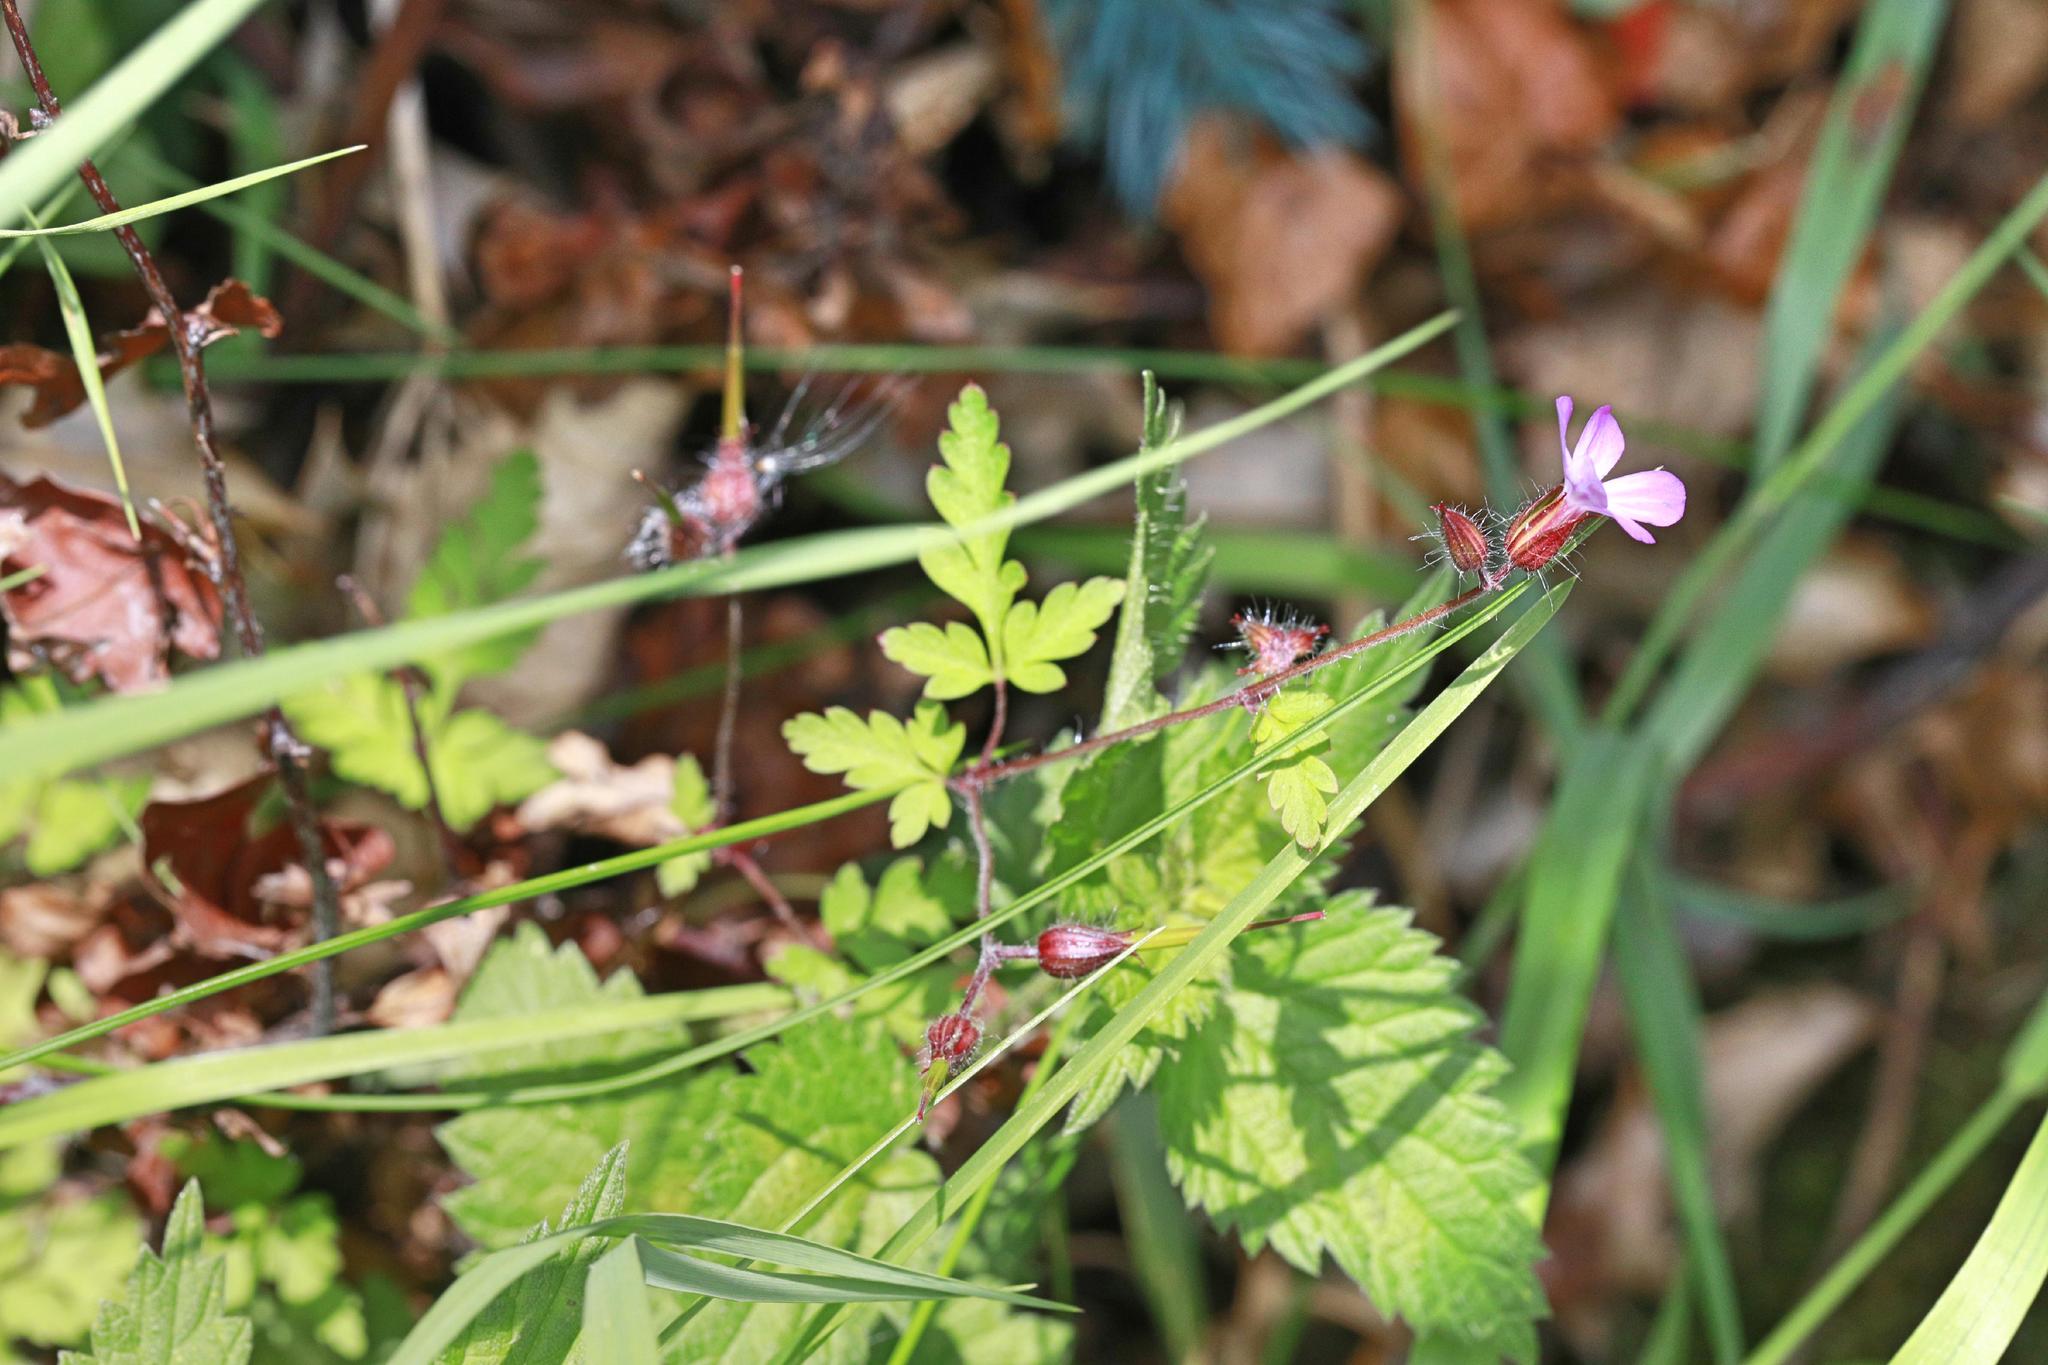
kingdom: Plantae
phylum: Tracheophyta
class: Magnoliopsida
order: Geraniales
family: Geraniaceae
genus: Geranium
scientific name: Geranium robertianum
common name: Herb-robert
